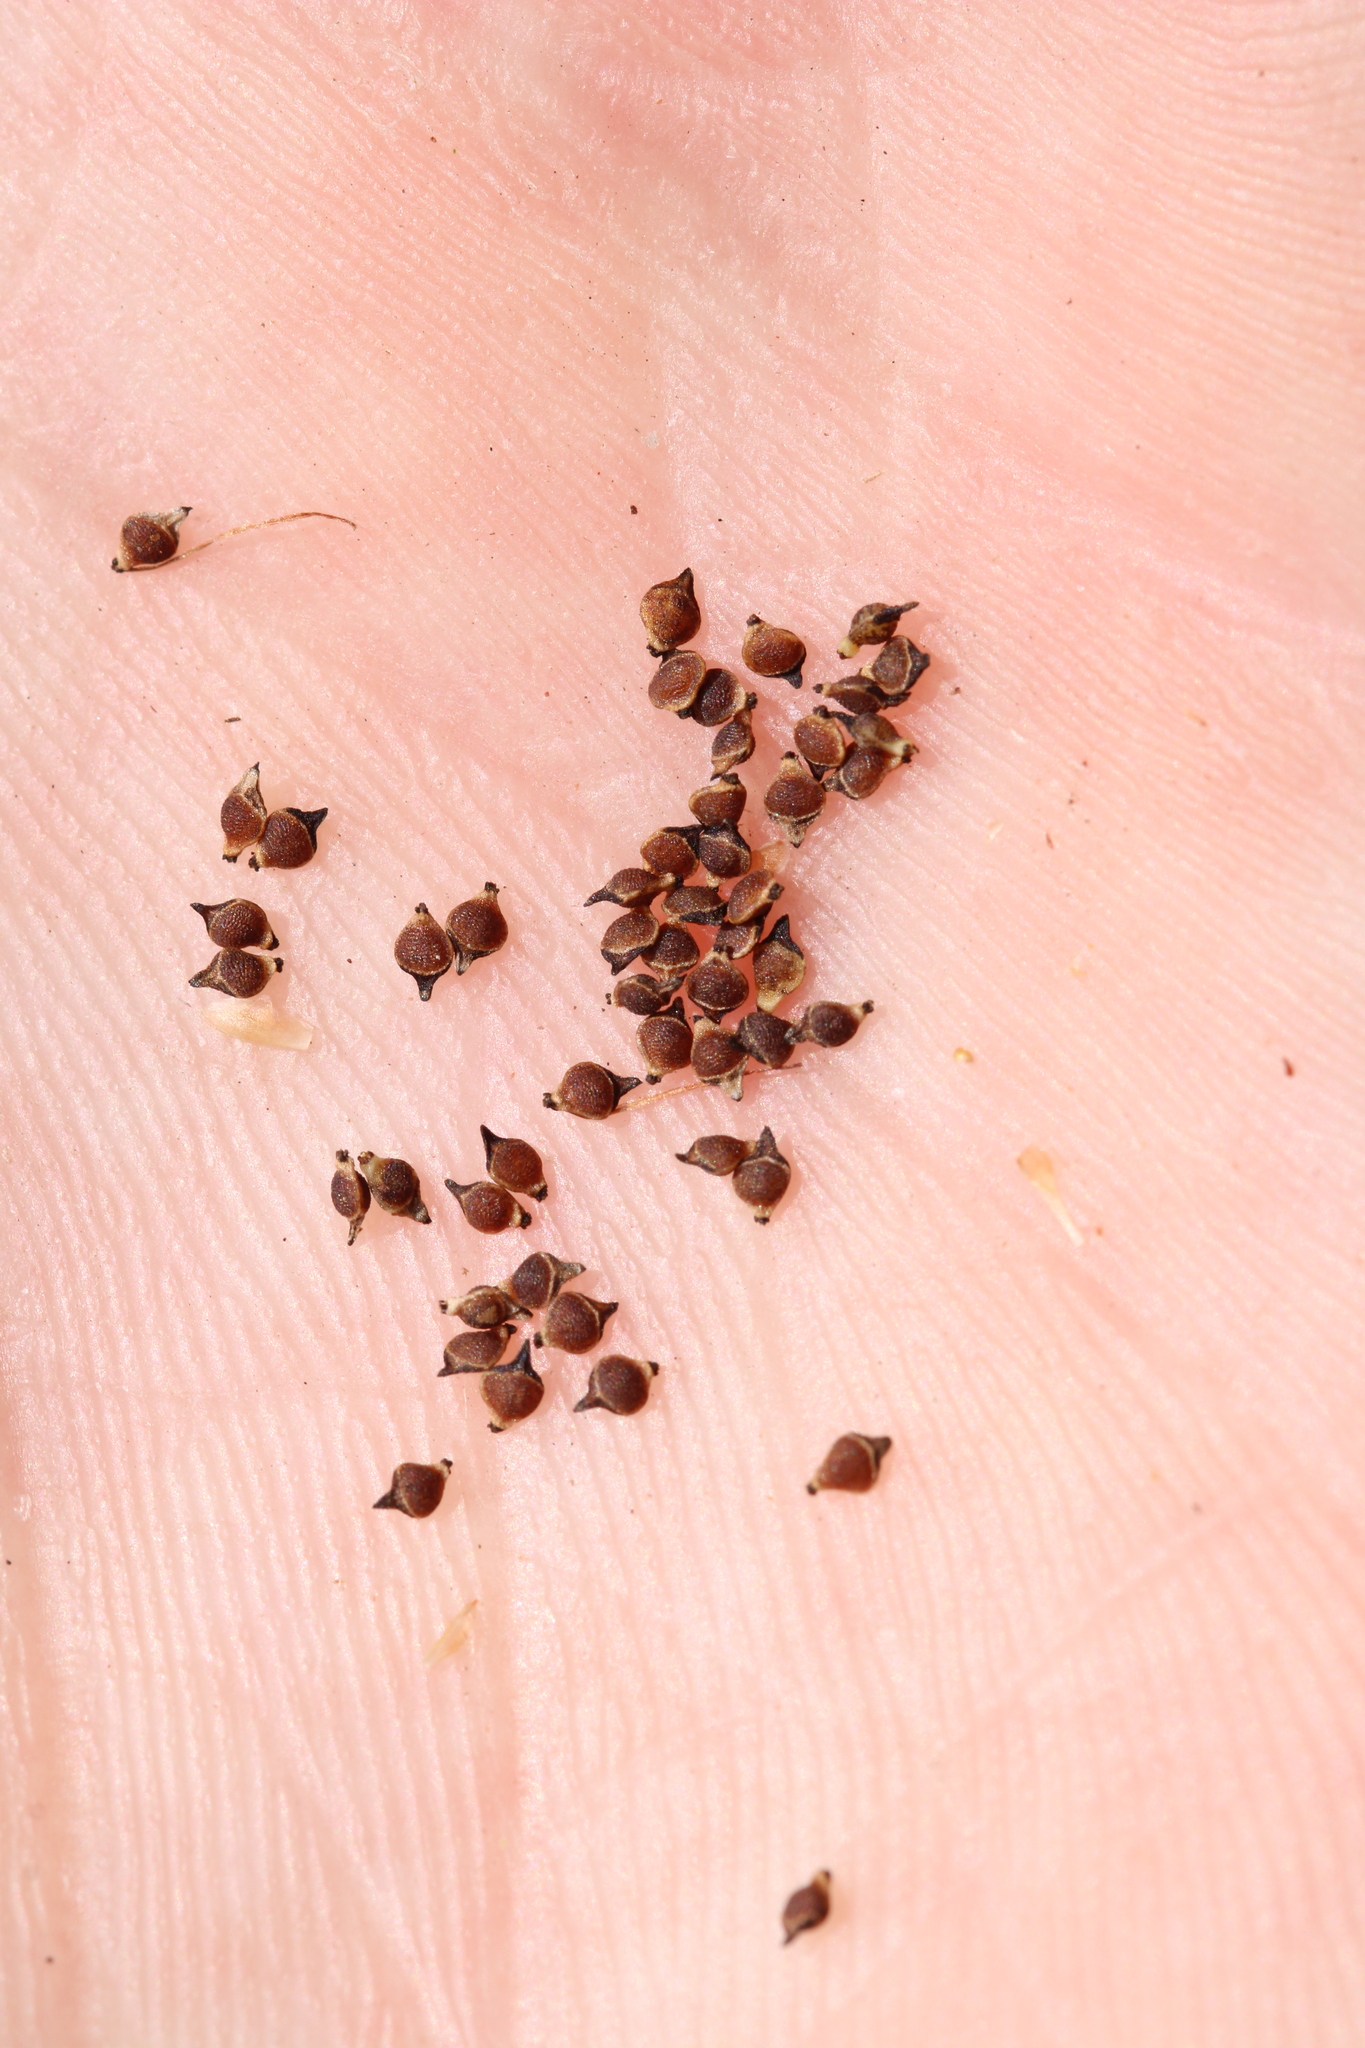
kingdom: Plantae
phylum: Tracheophyta
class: Liliopsida
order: Poales
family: Cyperaceae
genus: Rhynchospora
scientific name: Rhynchospora latifolia
